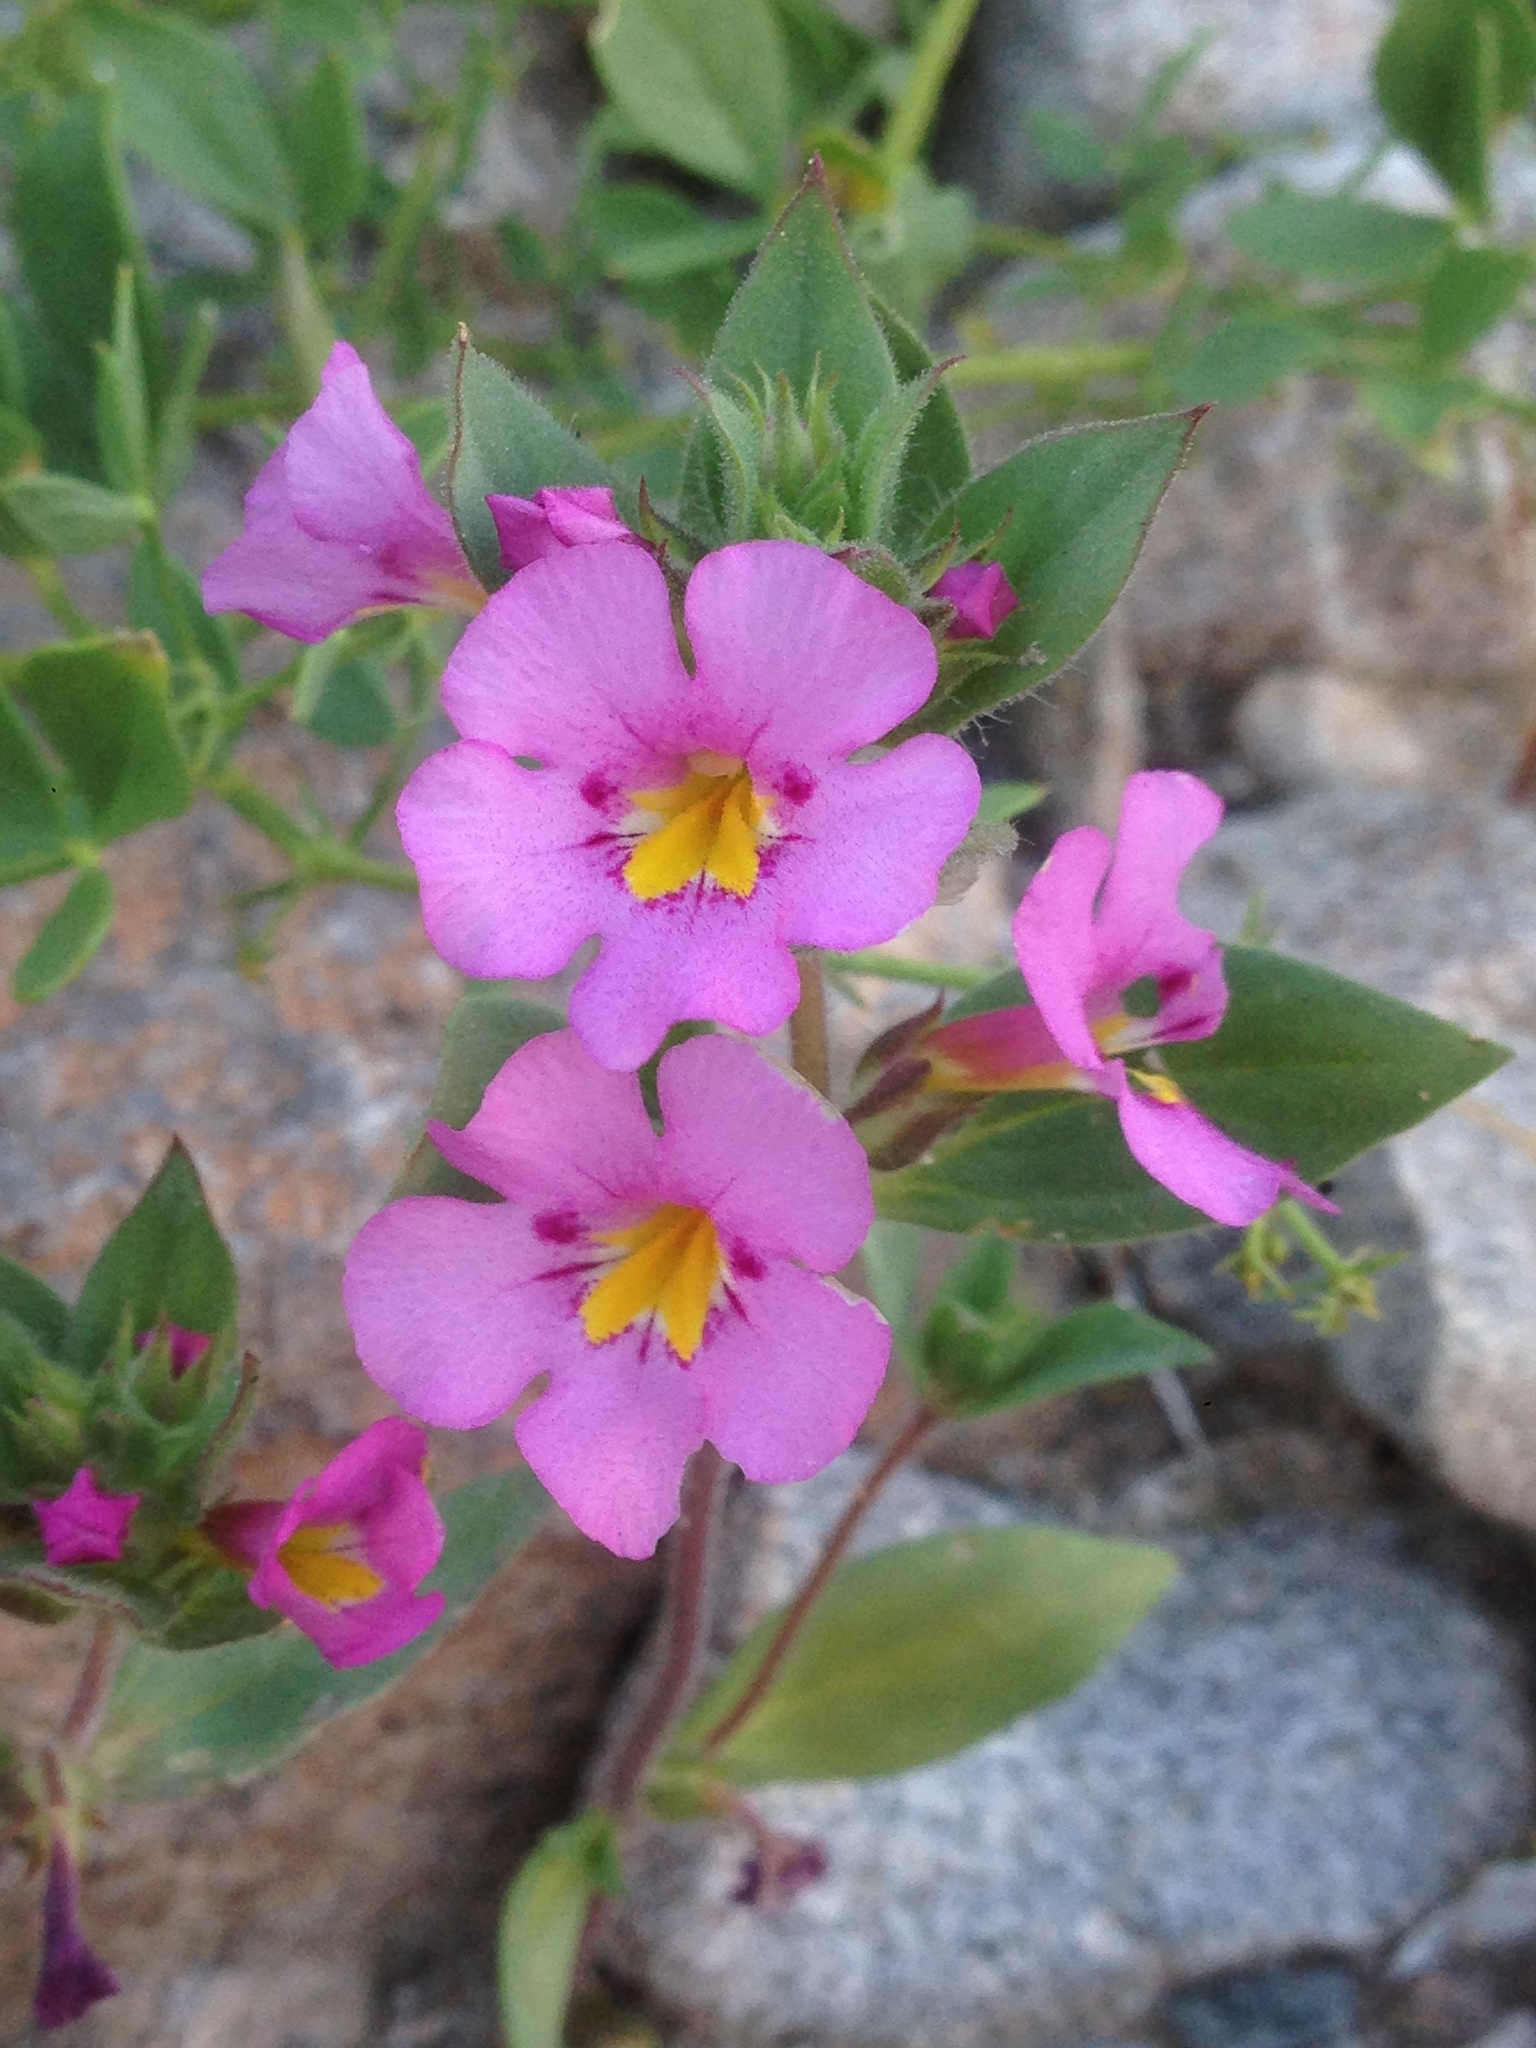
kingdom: Plantae
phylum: Tracheophyta
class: Magnoliopsida
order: Lamiales
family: Phrymaceae
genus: Diplacus
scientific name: Diplacus bigelovii
